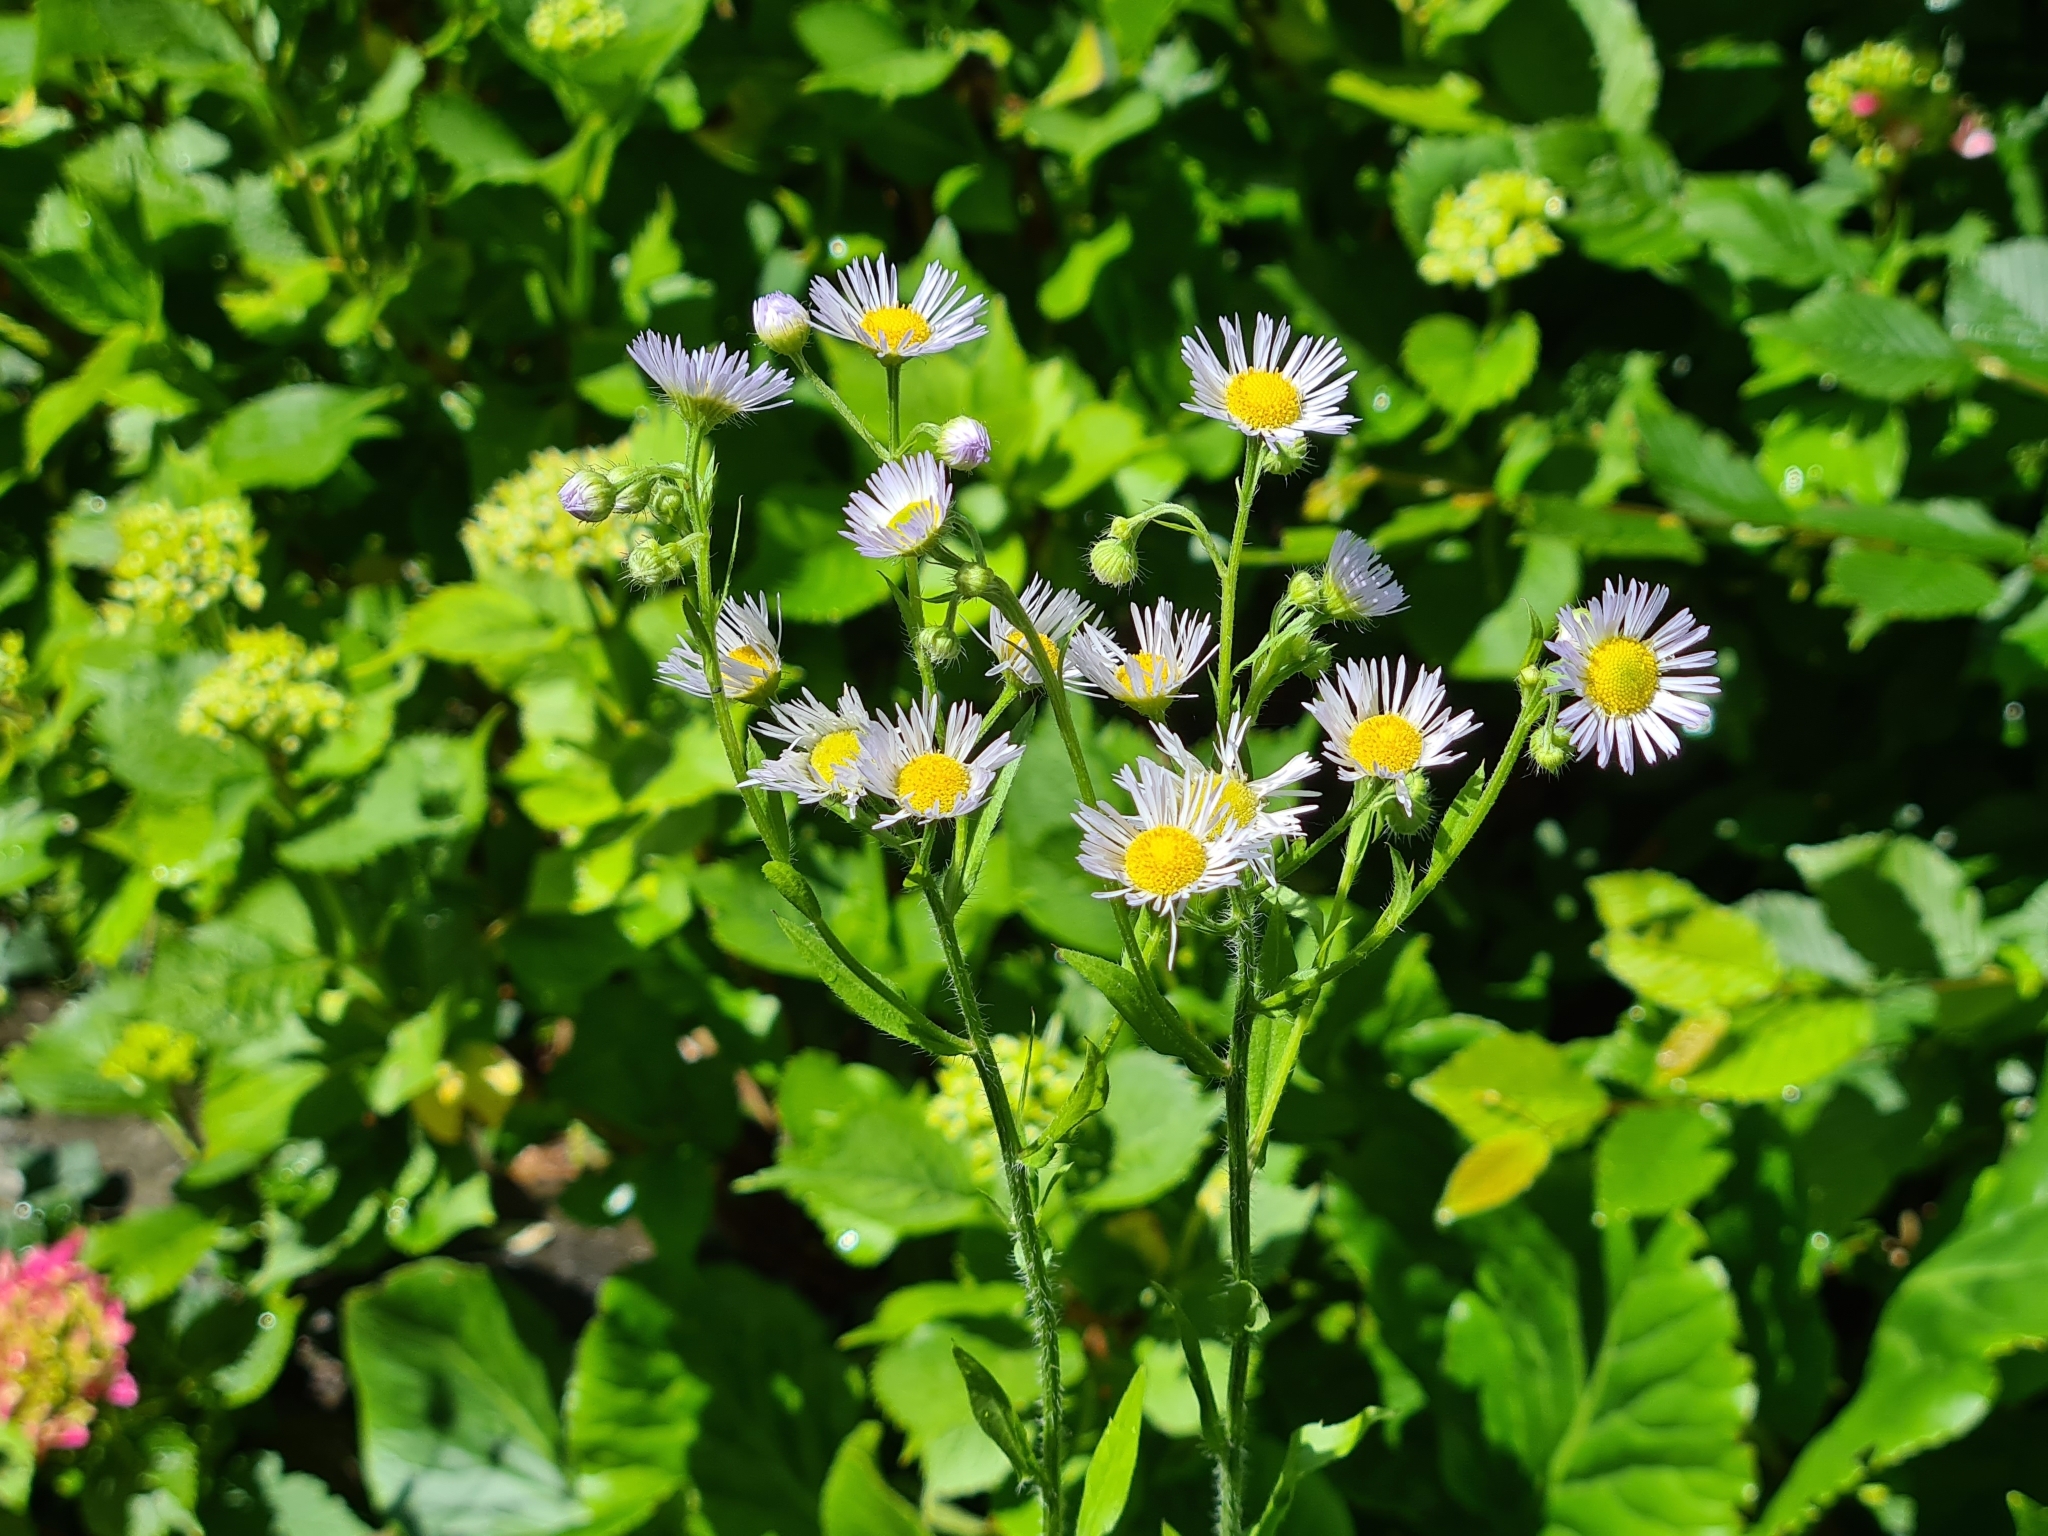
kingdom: Plantae
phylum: Tracheophyta
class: Magnoliopsida
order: Asterales
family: Asteraceae
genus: Erigeron
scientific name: Erigeron annuus
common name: Tall fleabane
